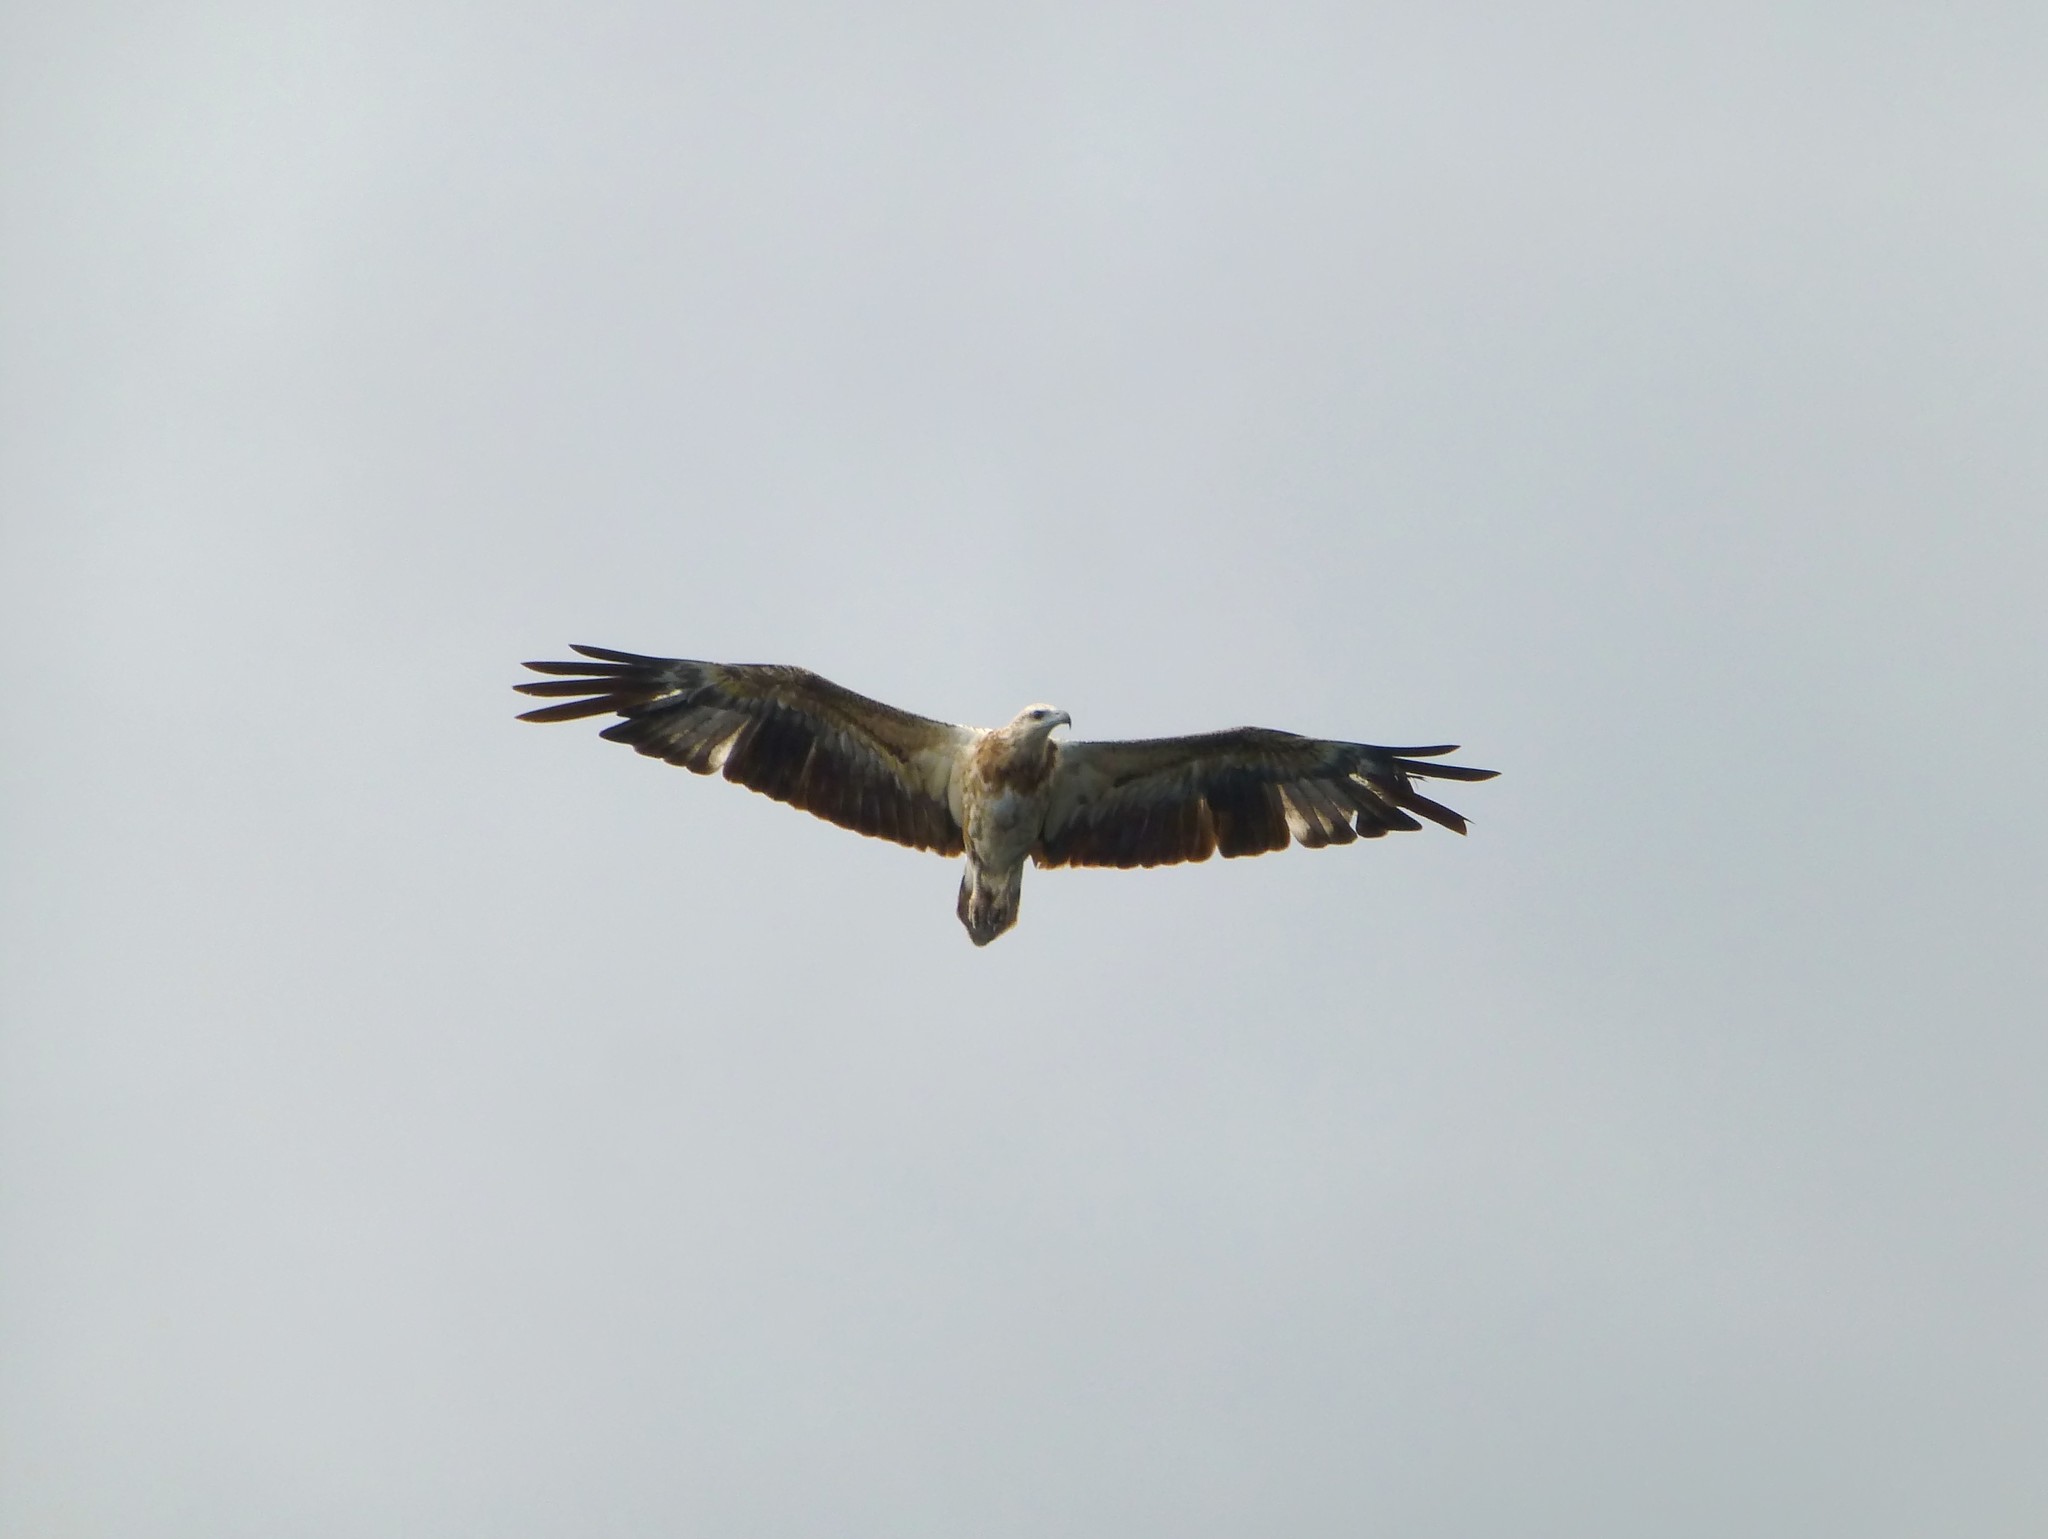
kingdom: Animalia
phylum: Chordata
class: Aves
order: Accipitriformes
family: Accipitridae
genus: Haliaeetus
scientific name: Haliaeetus leucogaster
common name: White-bellied sea eagle
